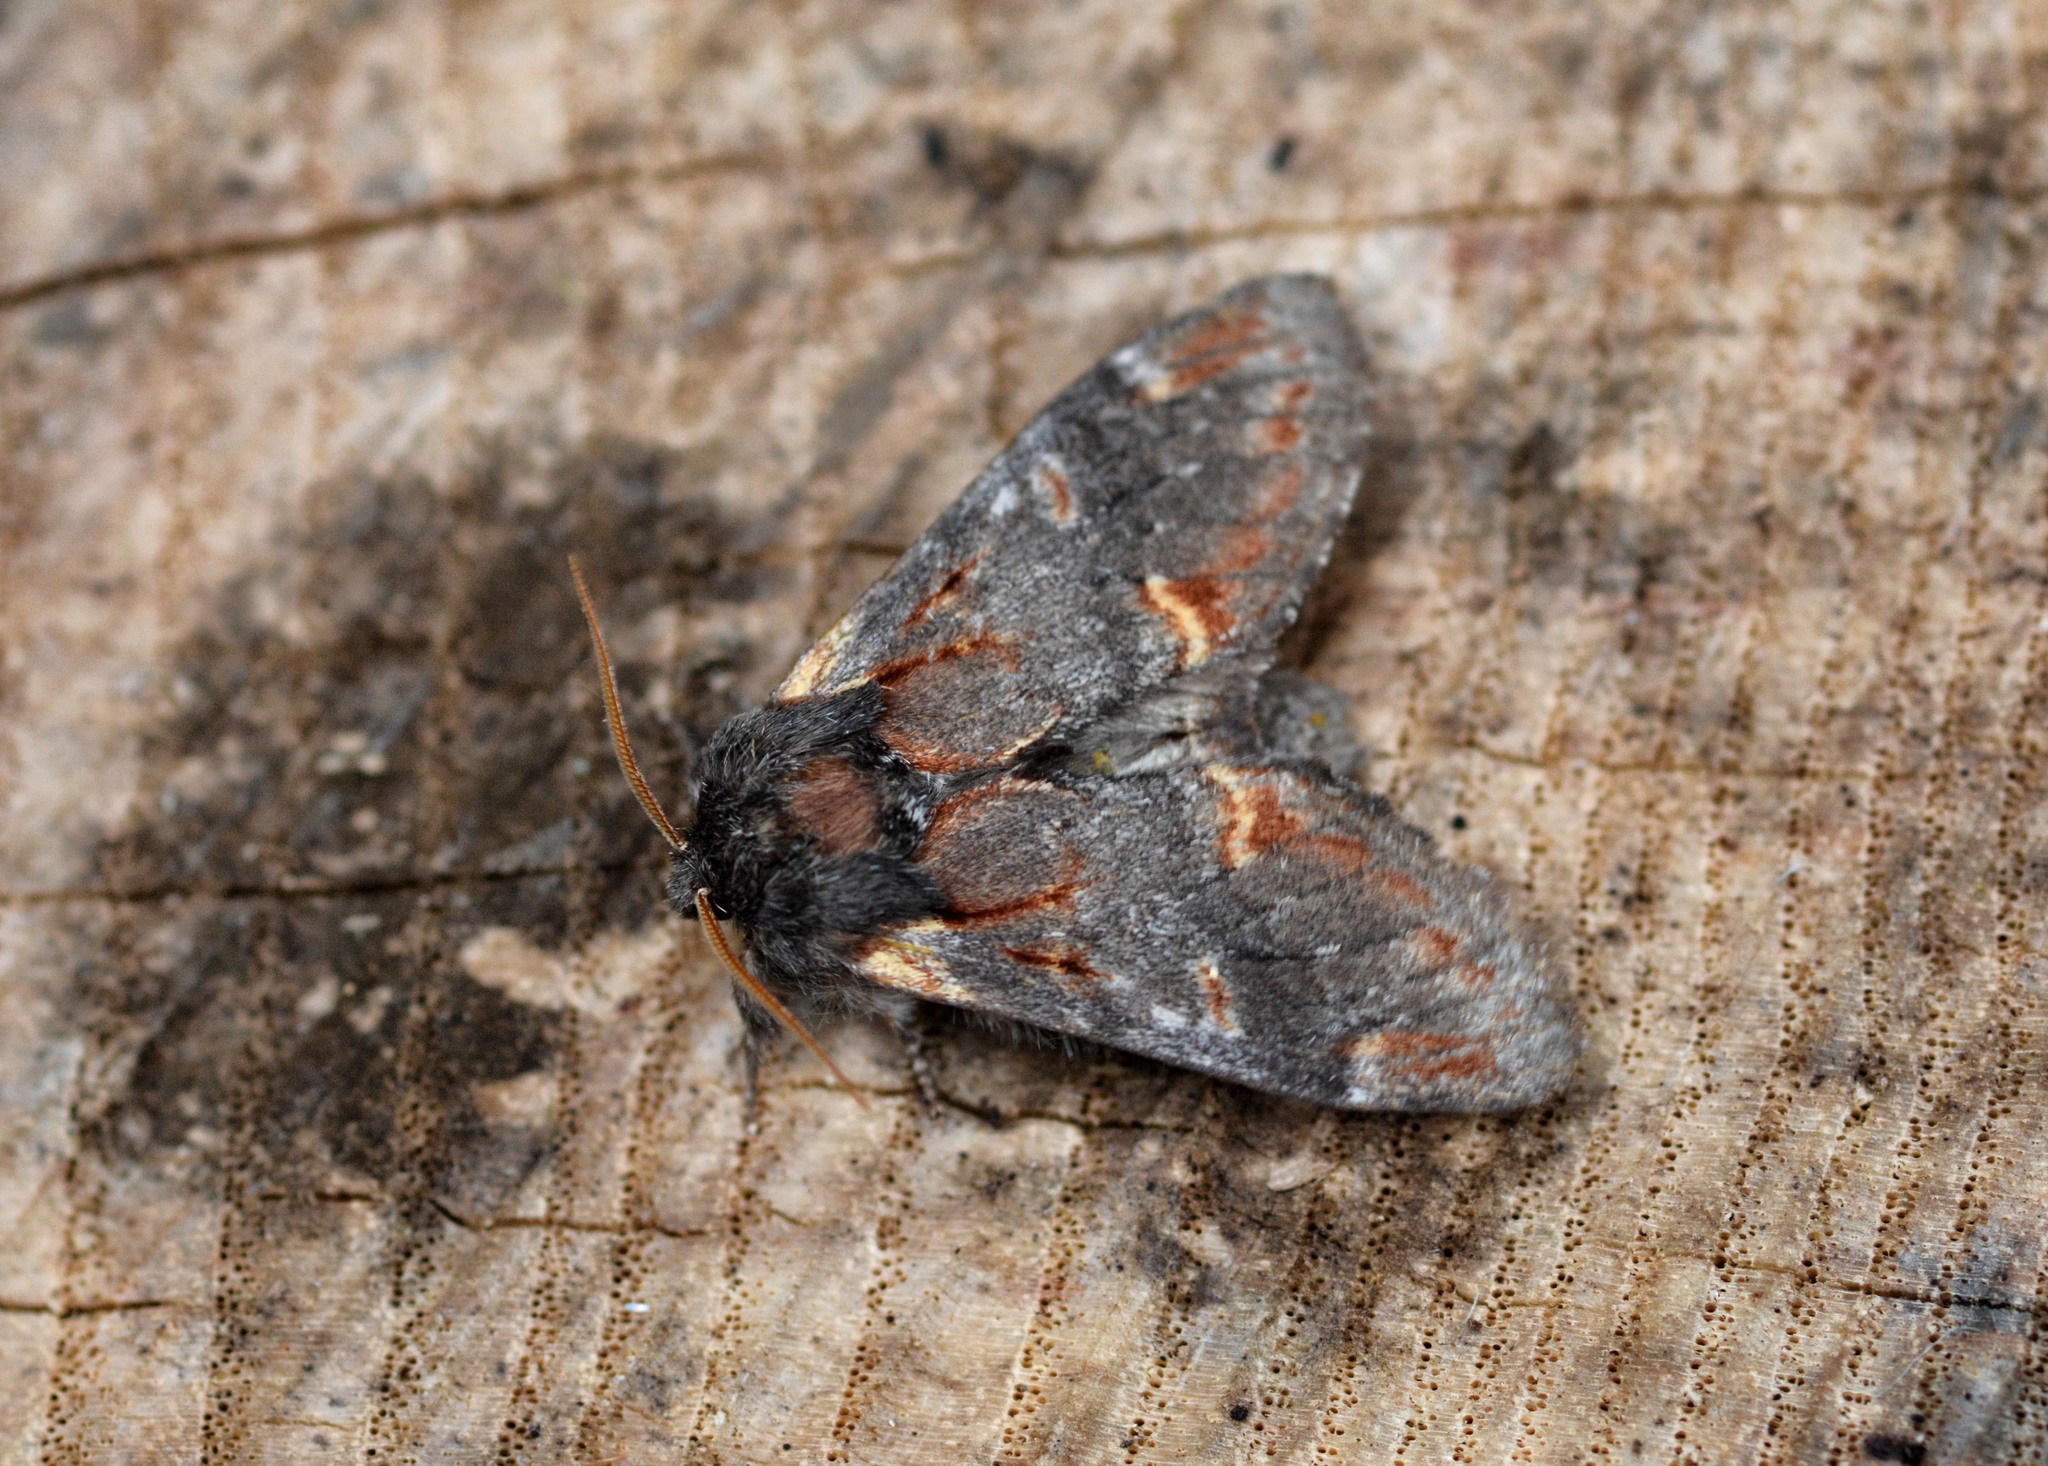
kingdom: Animalia
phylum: Arthropoda
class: Insecta
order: Lepidoptera
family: Notodontidae
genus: Notodonta
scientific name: Notodonta dromedarius
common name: Iron prominent
